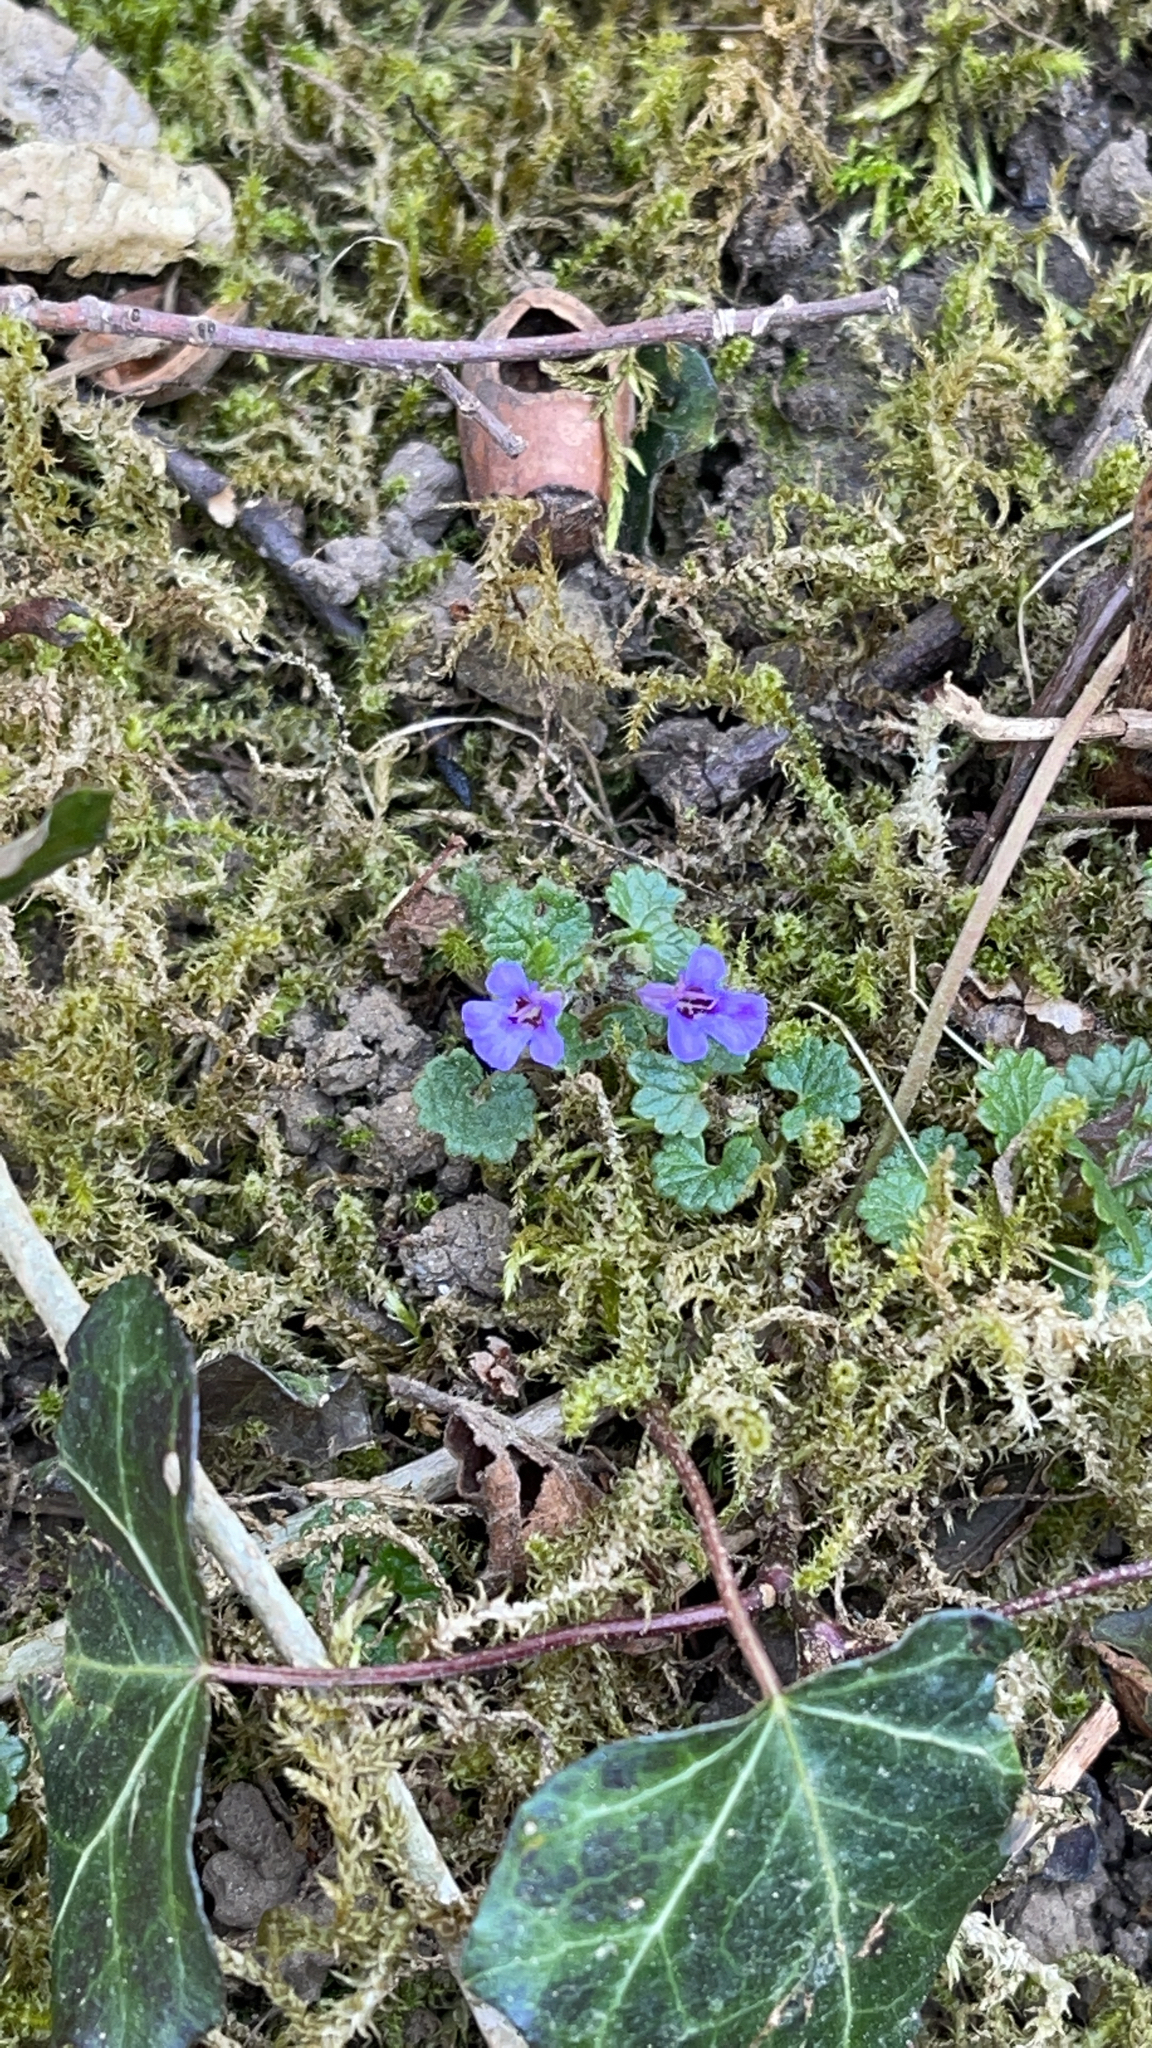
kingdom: Plantae
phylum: Tracheophyta
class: Magnoliopsida
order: Lamiales
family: Lamiaceae
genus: Glechoma
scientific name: Glechoma hederacea
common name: Ground ivy
